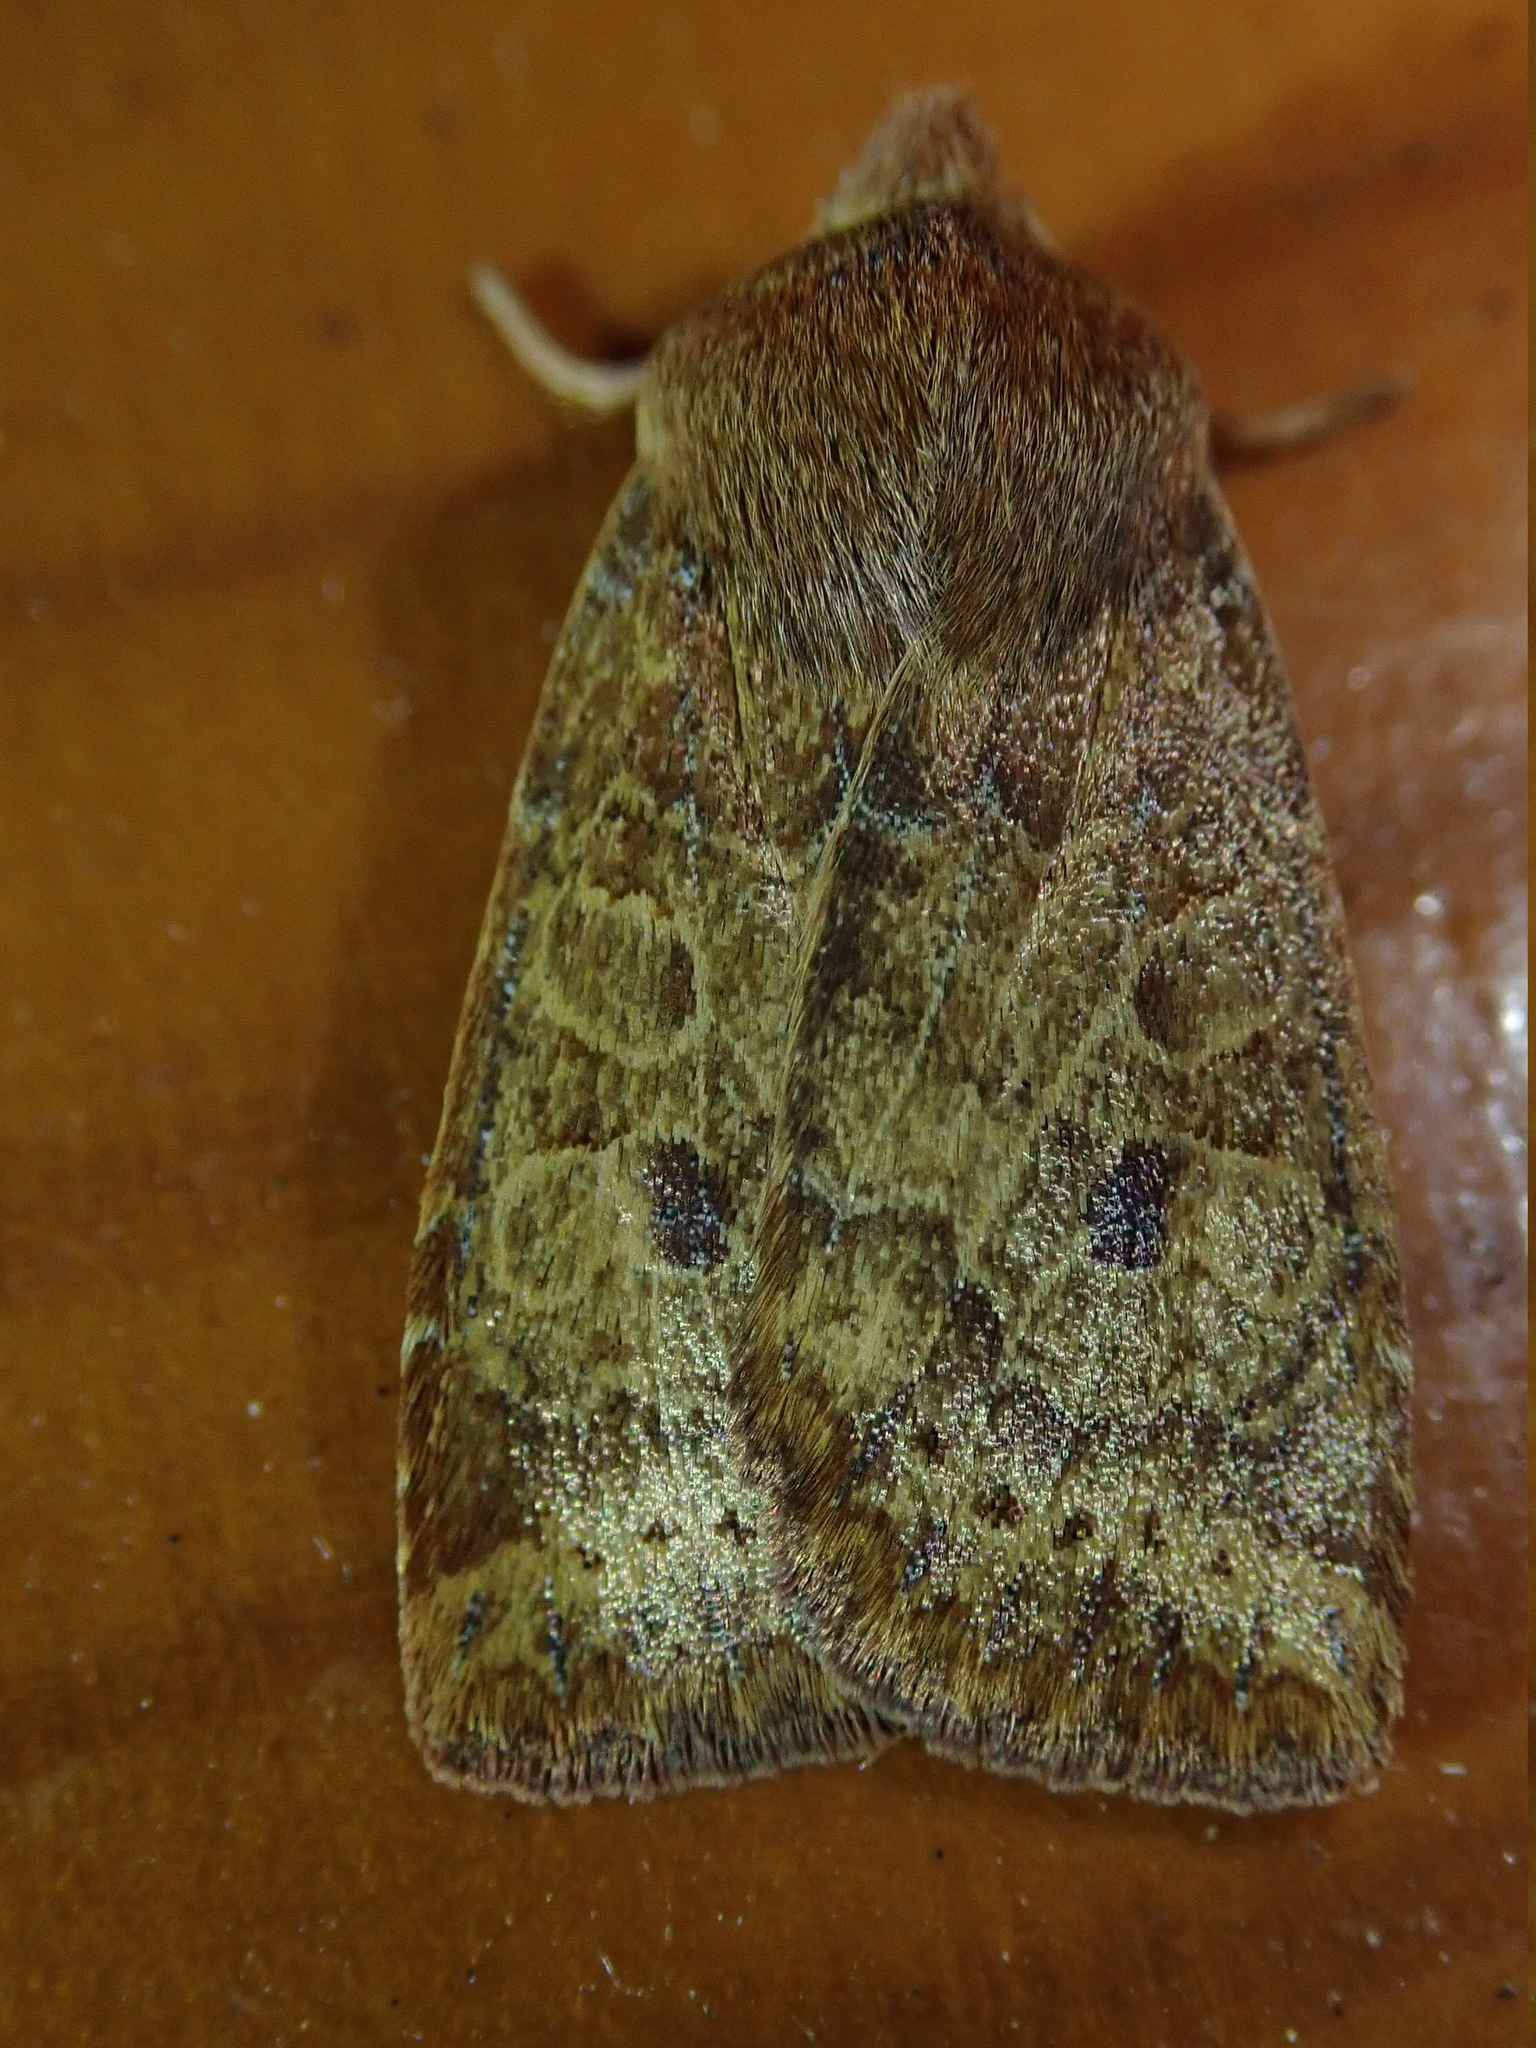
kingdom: Animalia
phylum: Arthropoda
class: Insecta
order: Lepidoptera
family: Noctuidae
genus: Conistra
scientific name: Conistra vaccinii
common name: Chestnut
